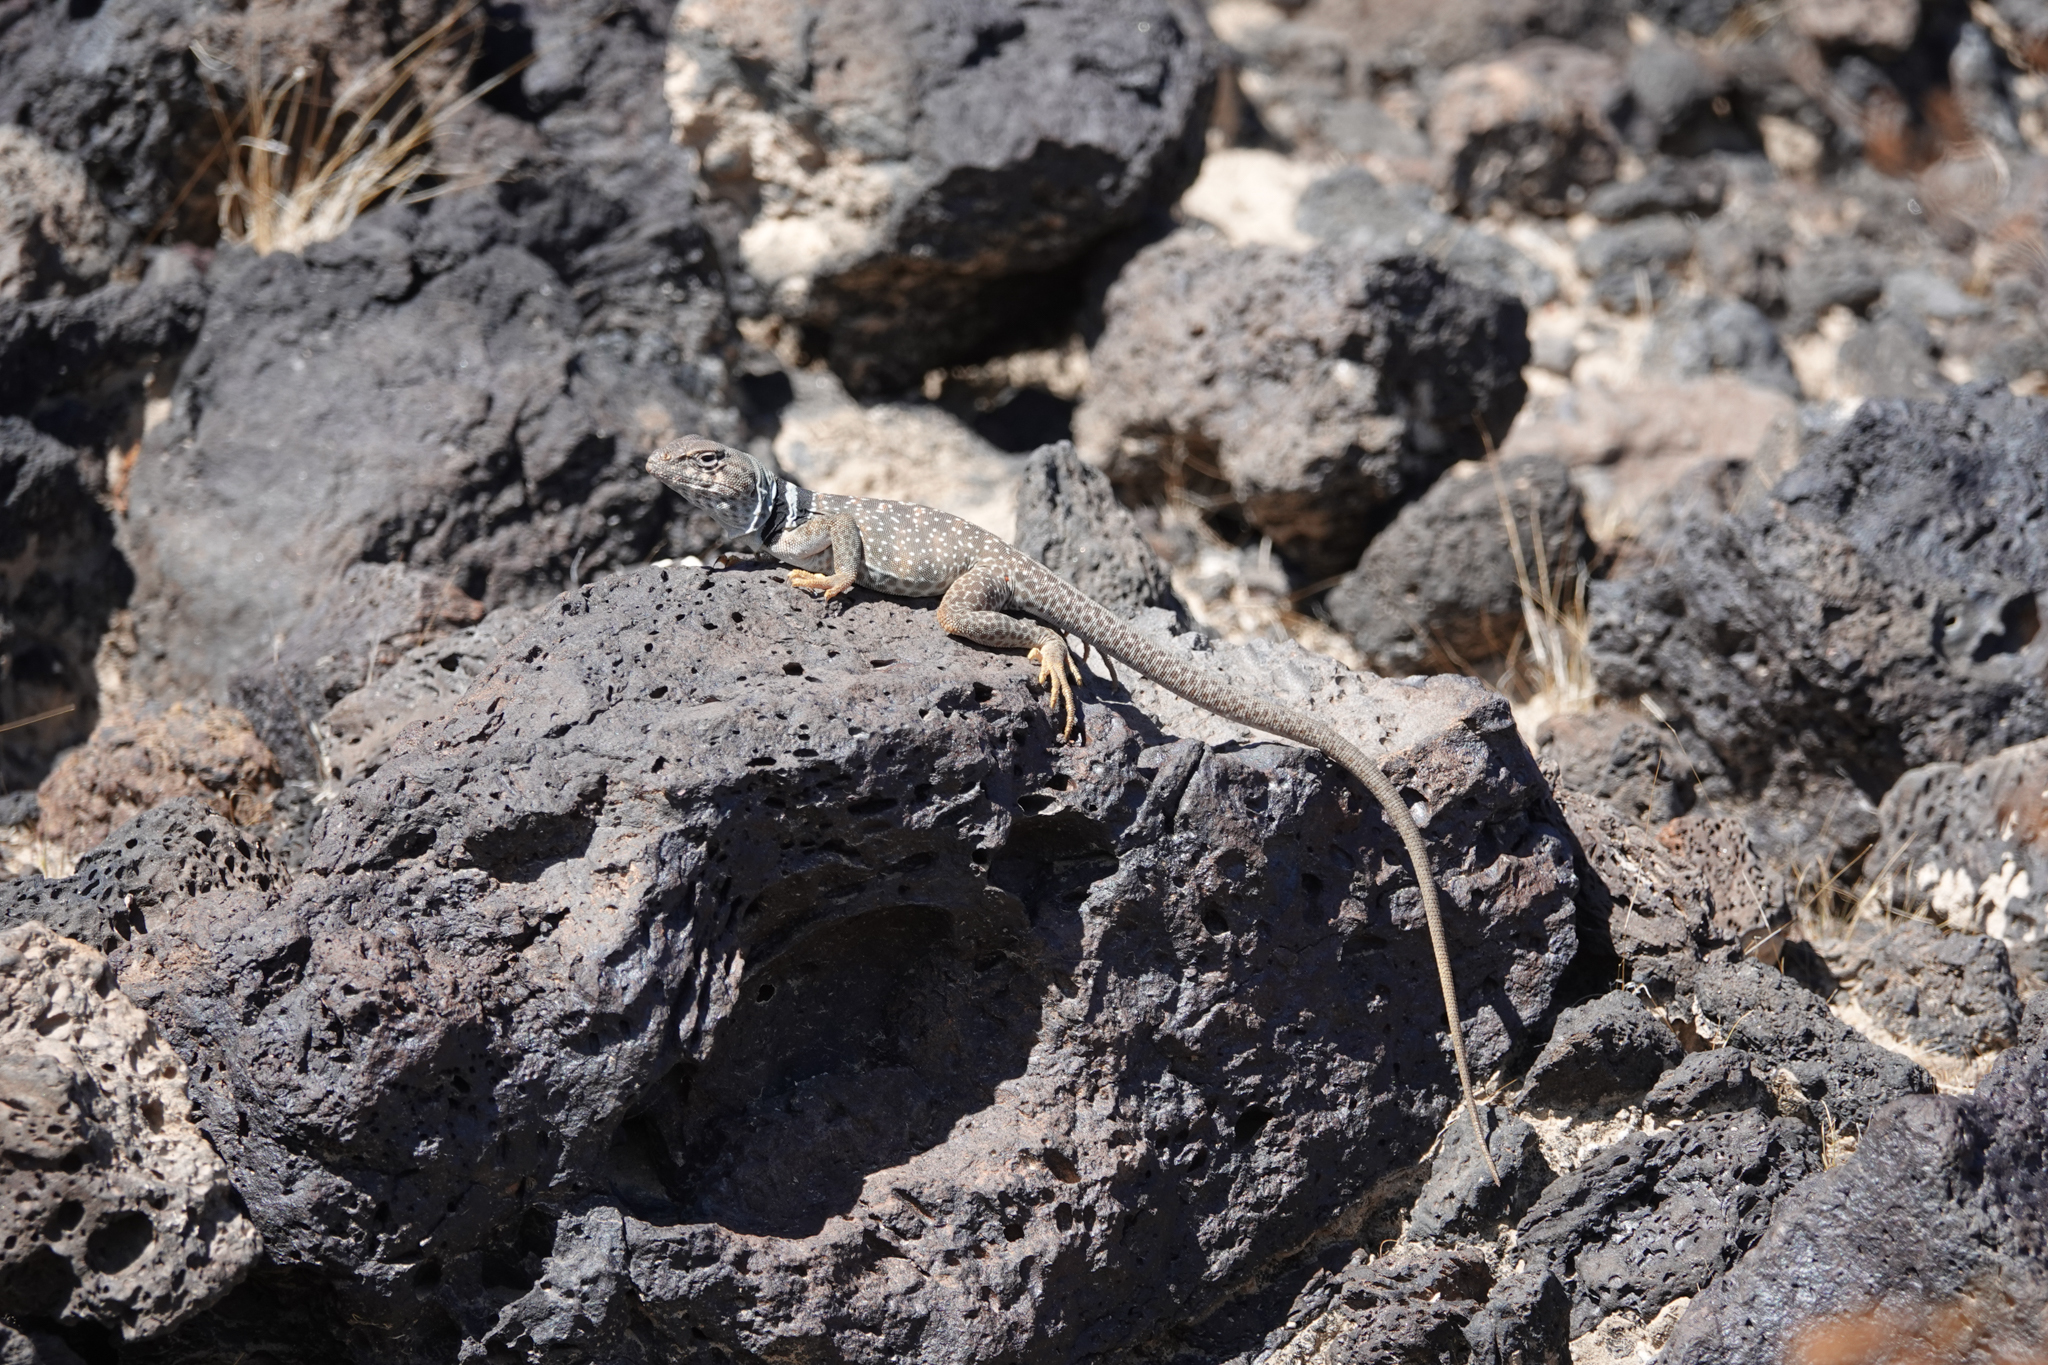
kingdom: Animalia
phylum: Chordata
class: Squamata
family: Crotaphytidae
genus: Crotaphytus
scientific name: Crotaphytus bicinctores
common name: Mojave black-collared lizard
